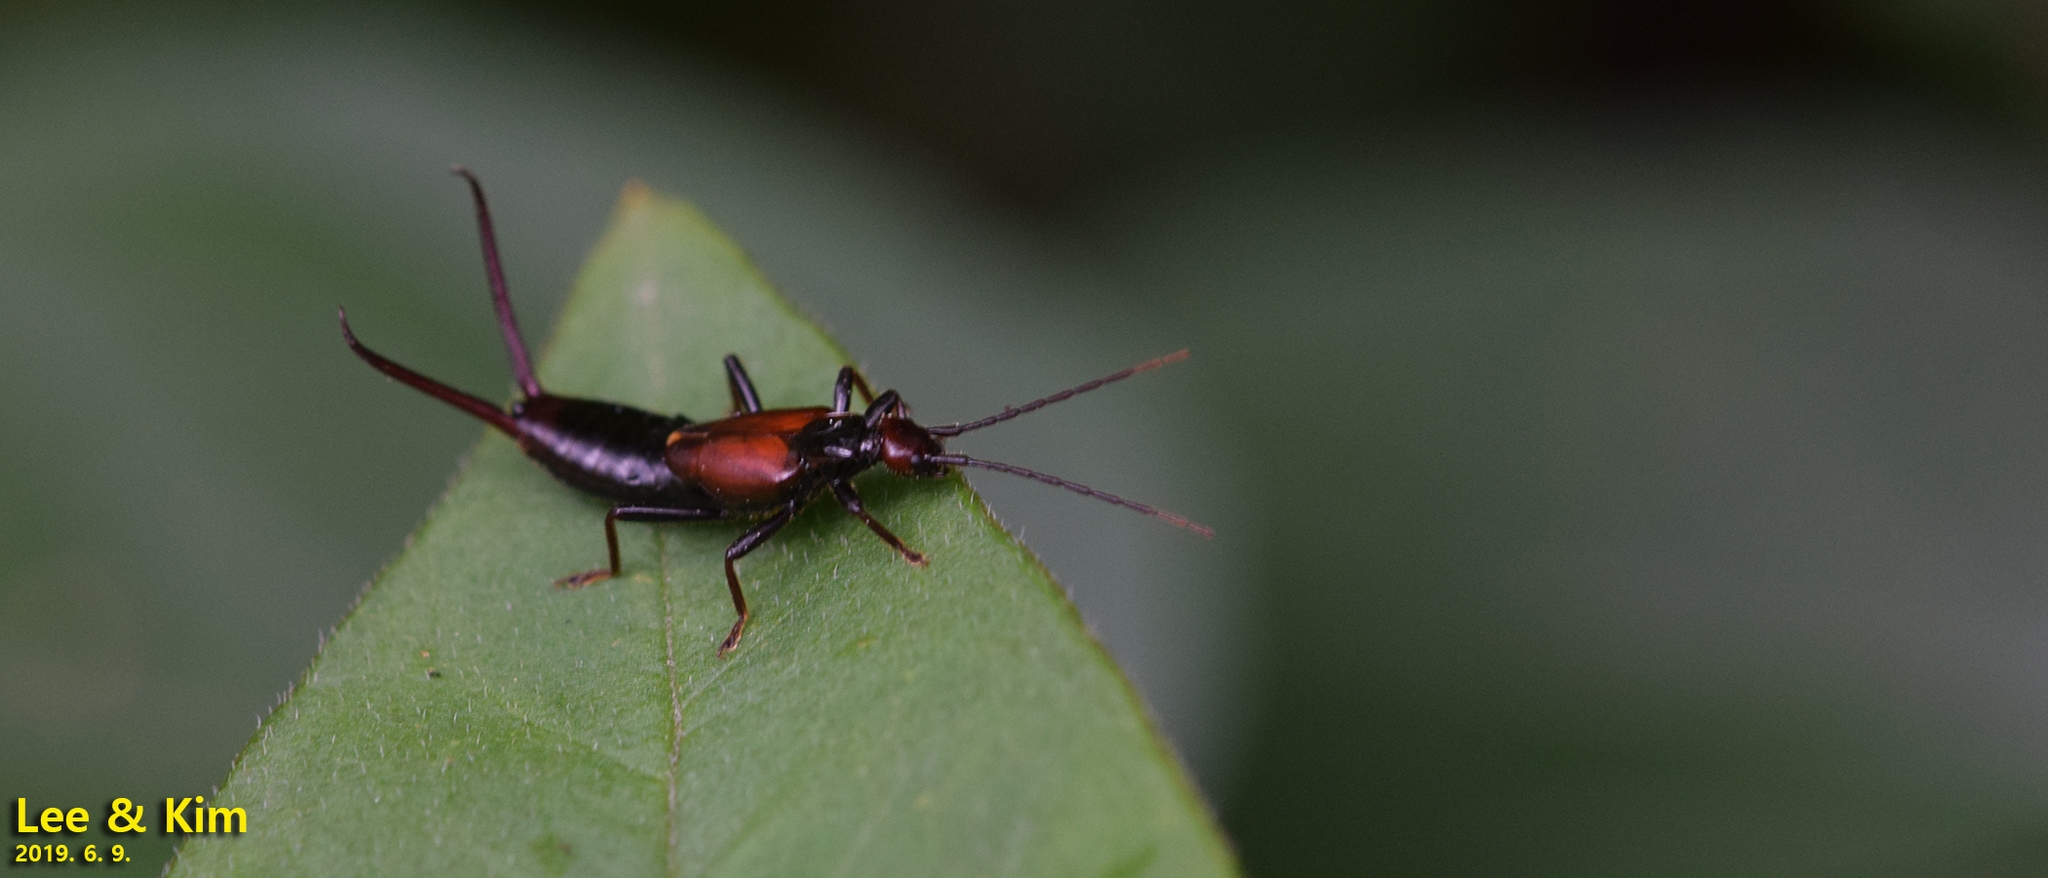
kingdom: Animalia
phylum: Arthropoda
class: Insecta
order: Dermaptera
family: Forficulidae
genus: Timomenus
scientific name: Timomenus komarovi
